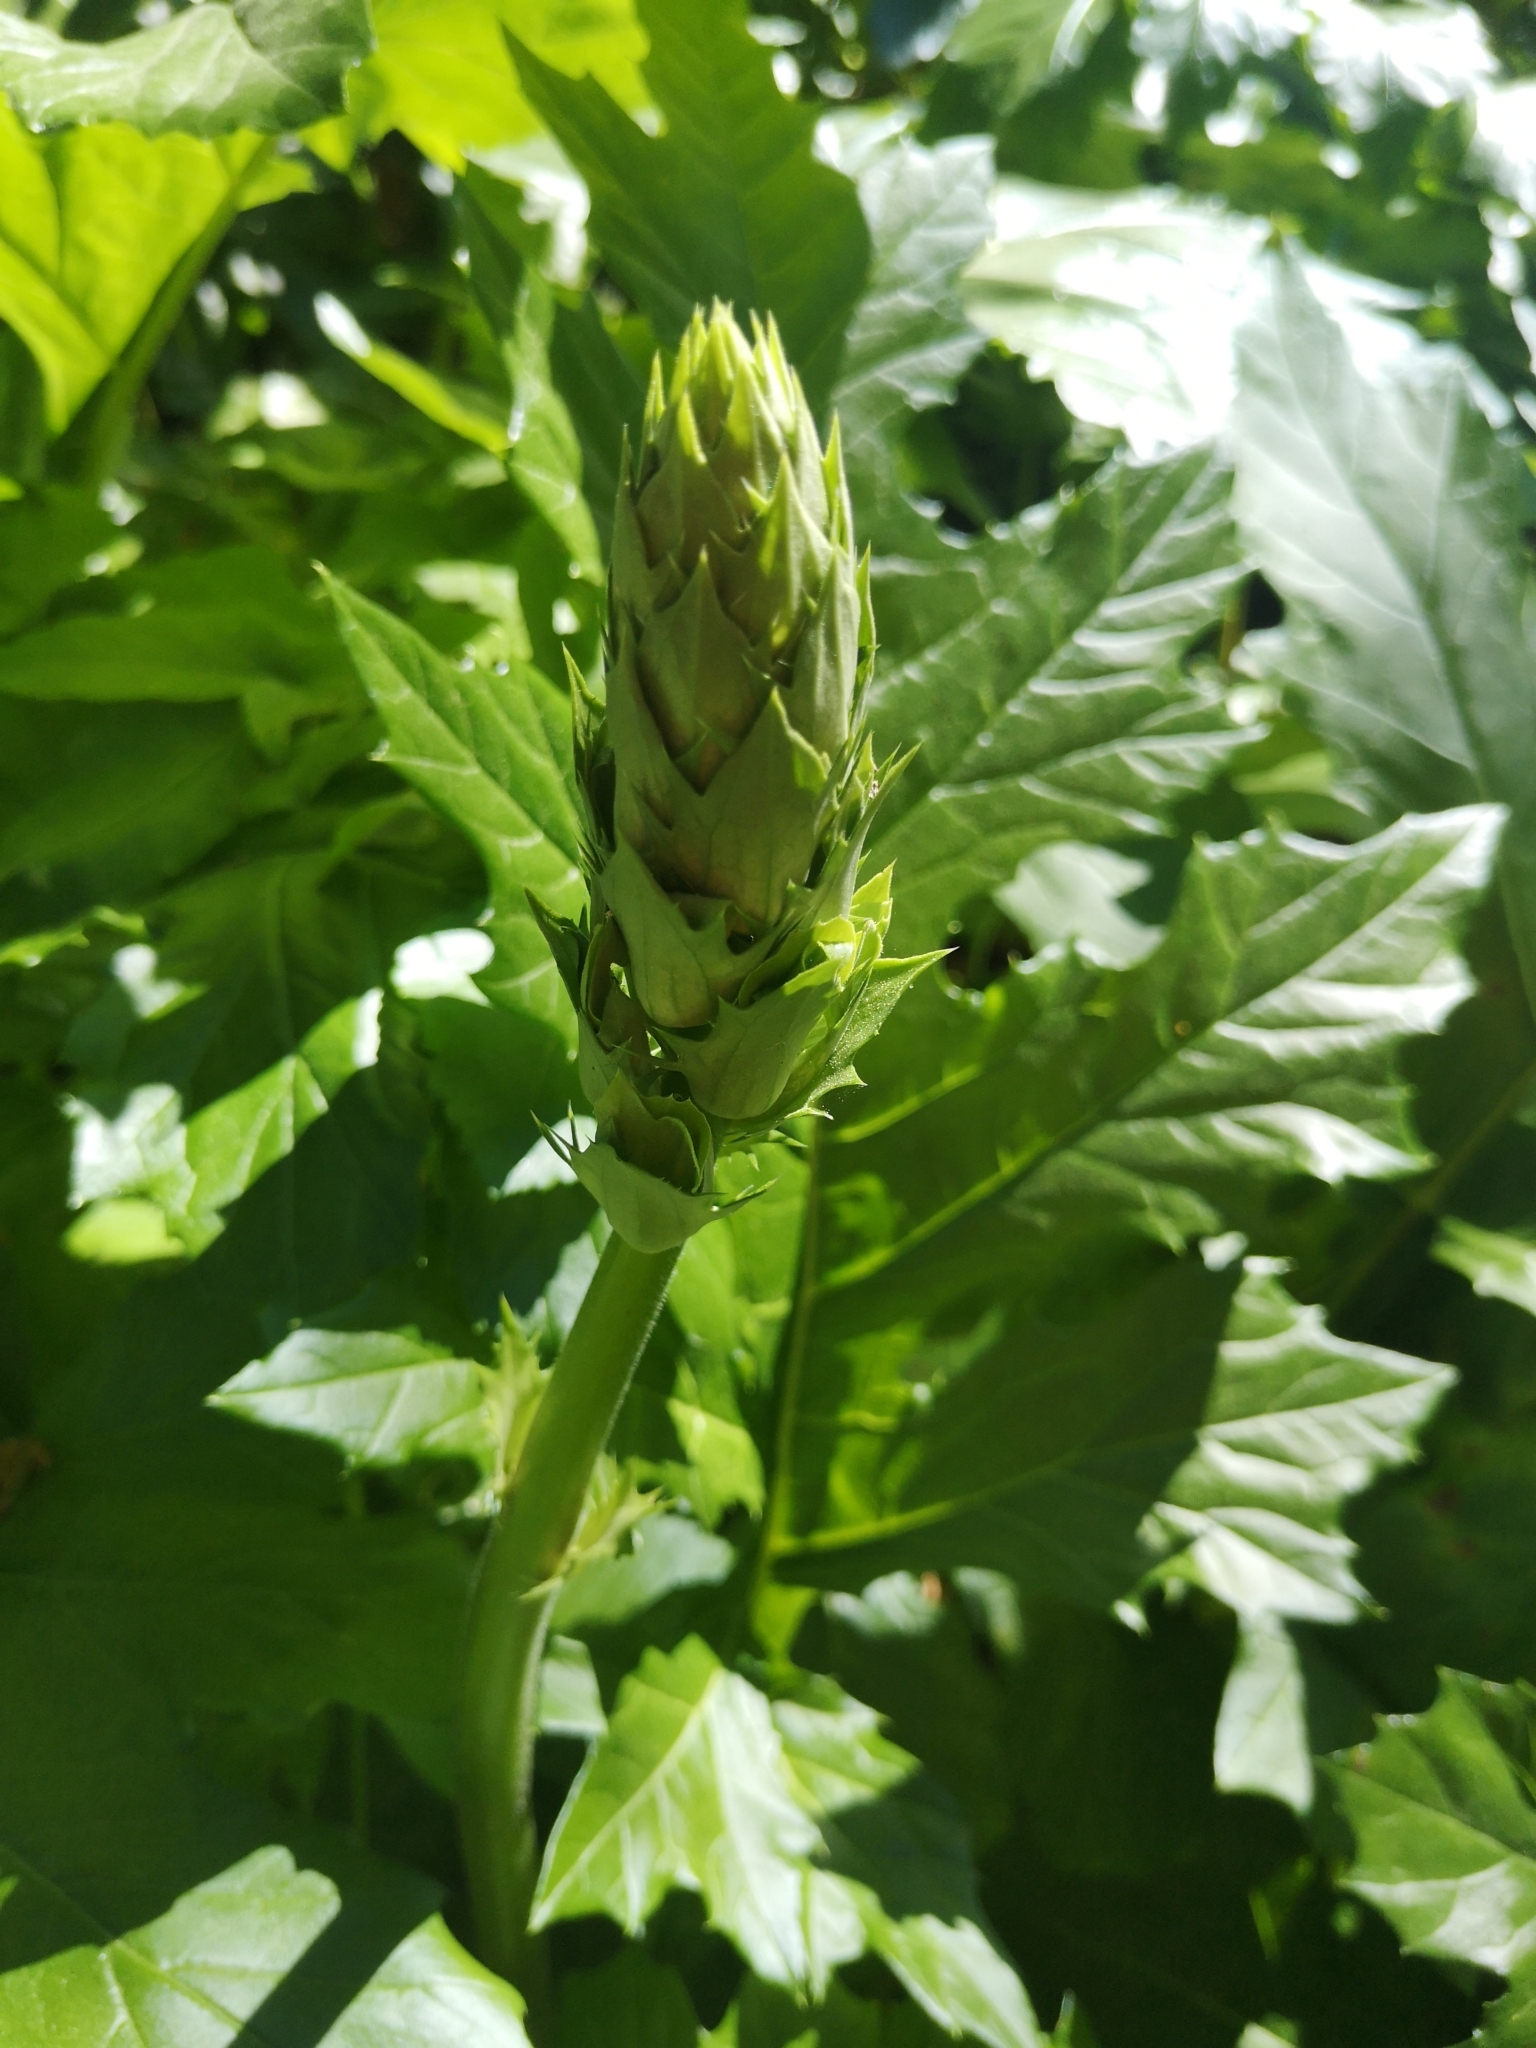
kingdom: Plantae
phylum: Tracheophyta
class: Magnoliopsida
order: Lamiales
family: Acanthaceae
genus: Acanthus
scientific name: Acanthus mollis
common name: Bear's-breech
